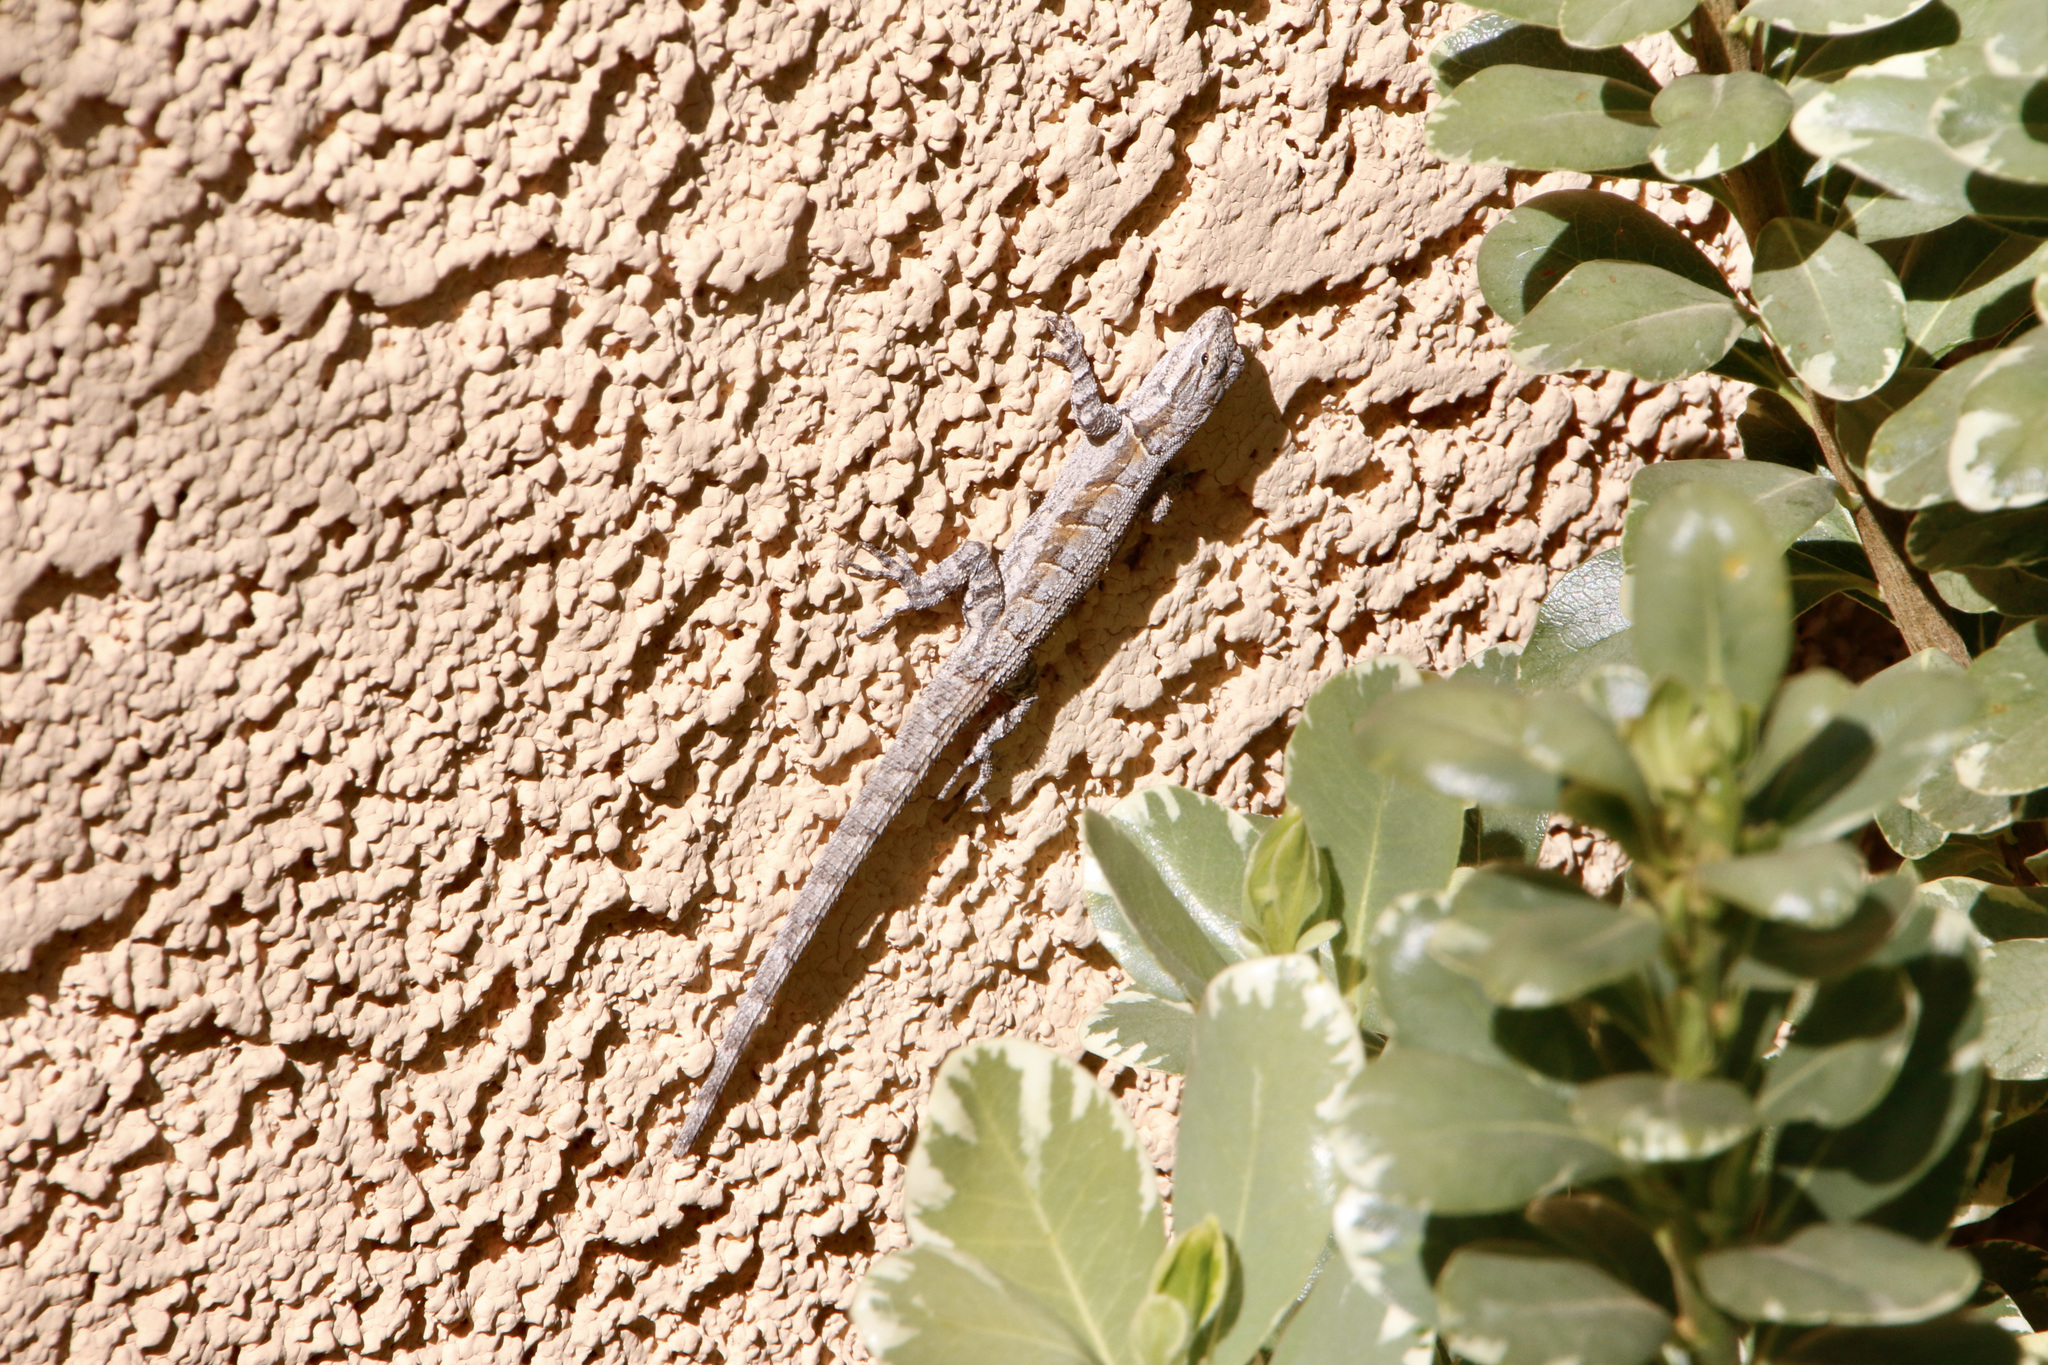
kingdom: Animalia
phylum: Chordata
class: Squamata
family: Phrynosomatidae
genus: Urosaurus
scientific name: Urosaurus ornatus
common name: Ornate tree lizard
